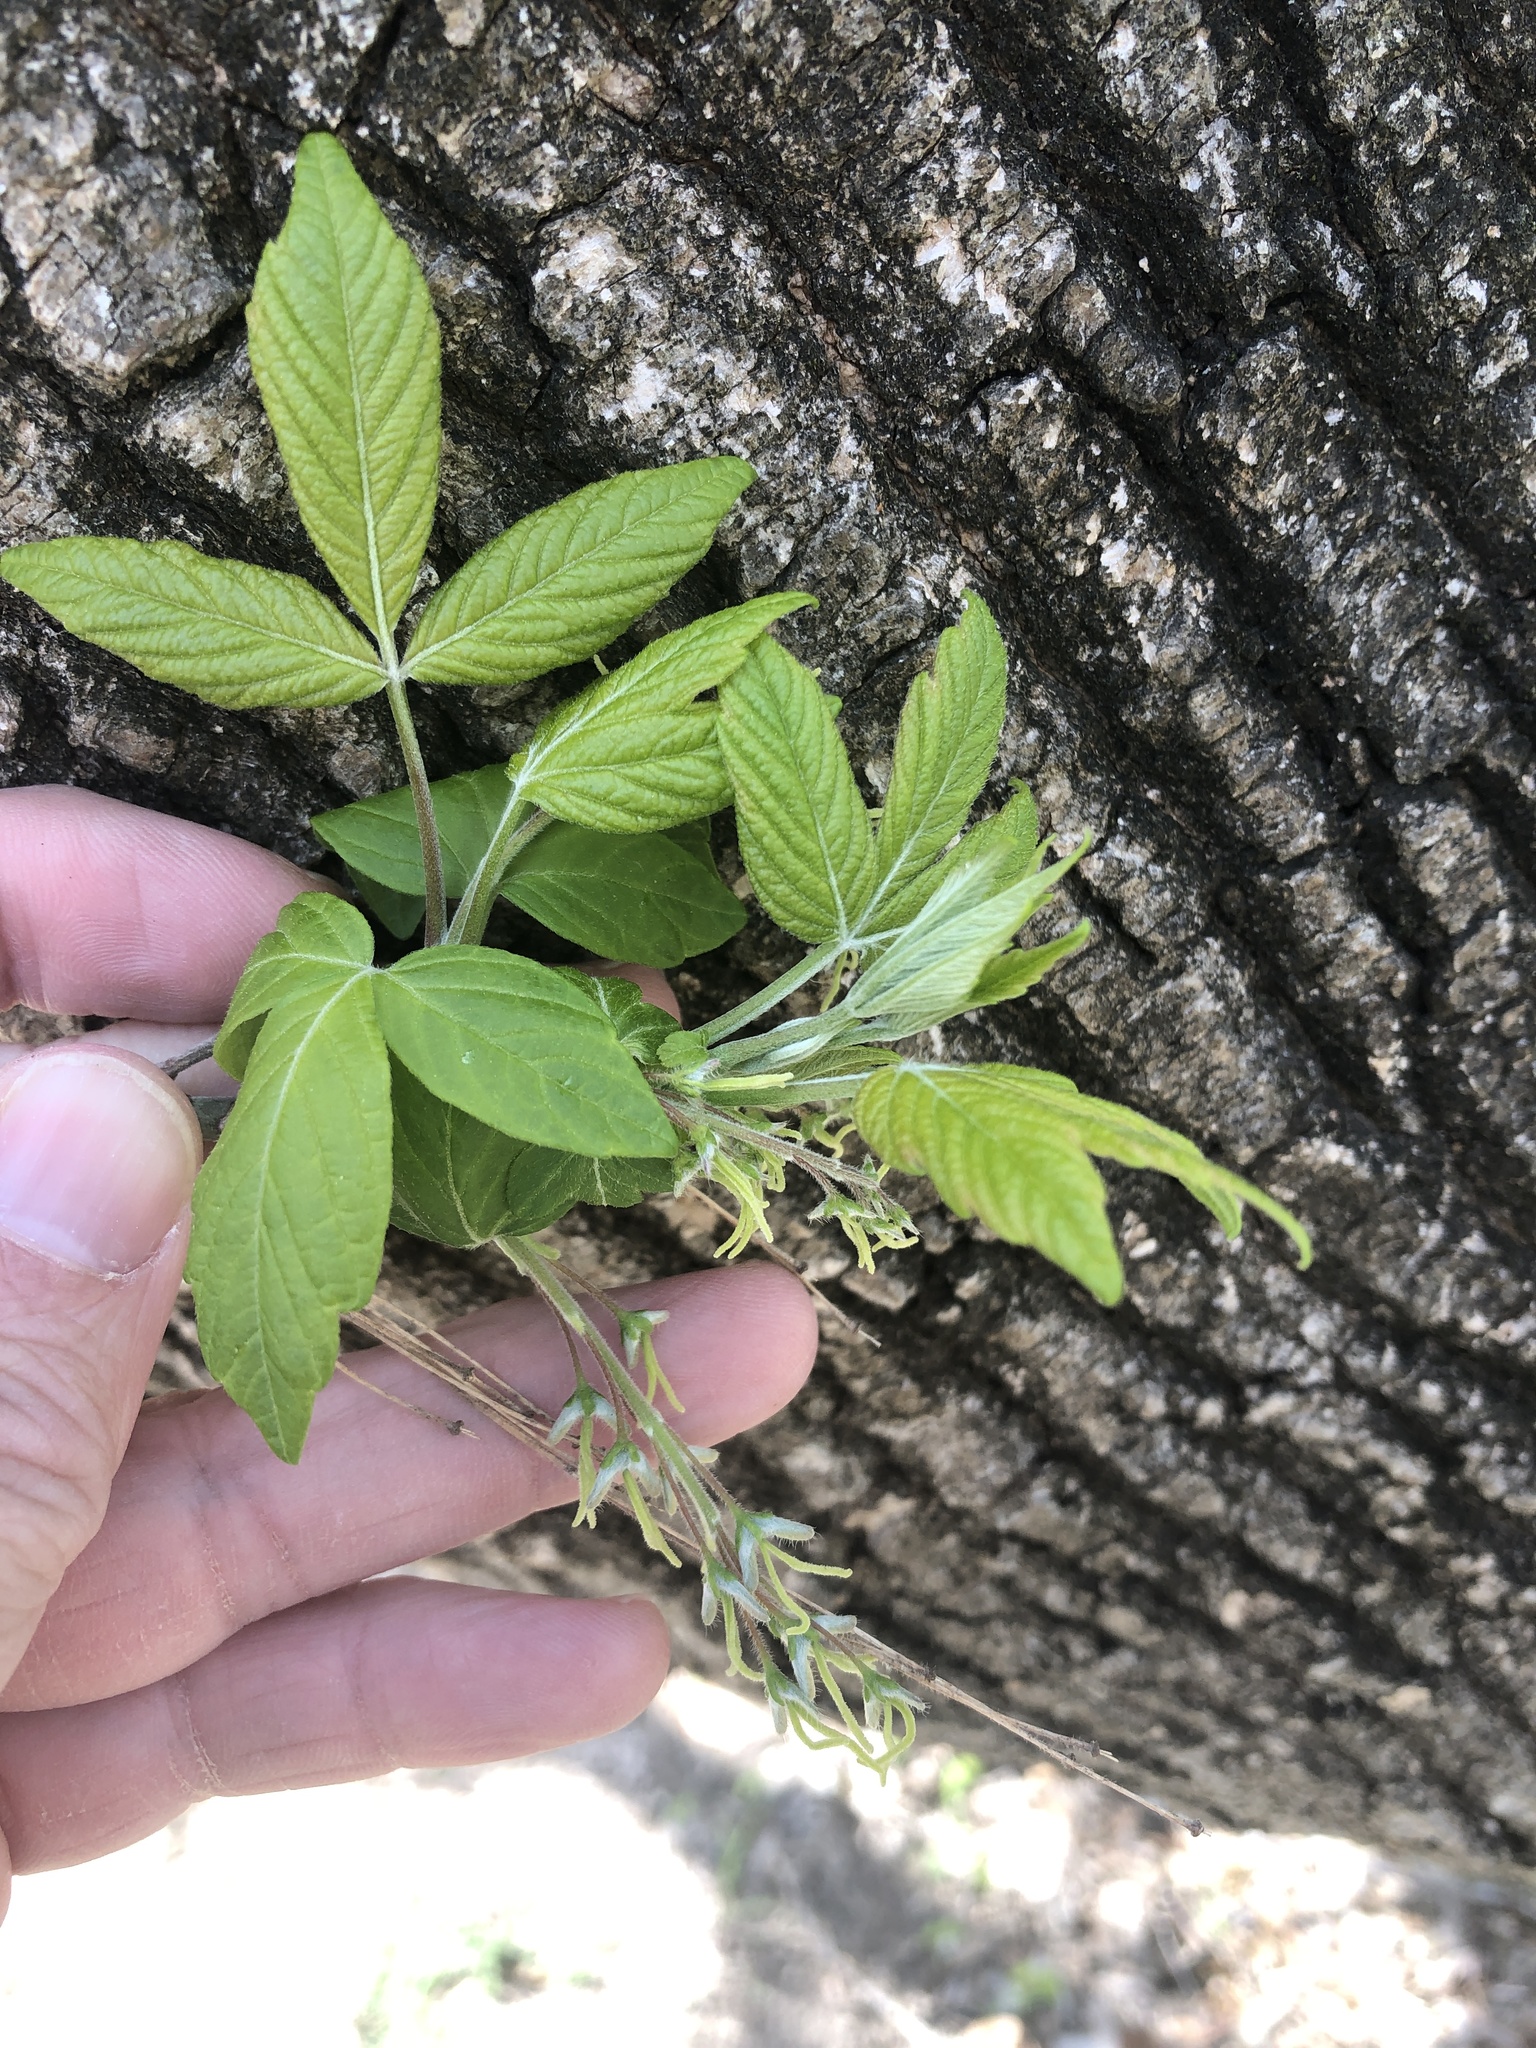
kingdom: Plantae
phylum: Tracheophyta
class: Magnoliopsida
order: Sapindales
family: Sapindaceae
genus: Acer
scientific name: Acer negundo
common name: Ashleaf maple
